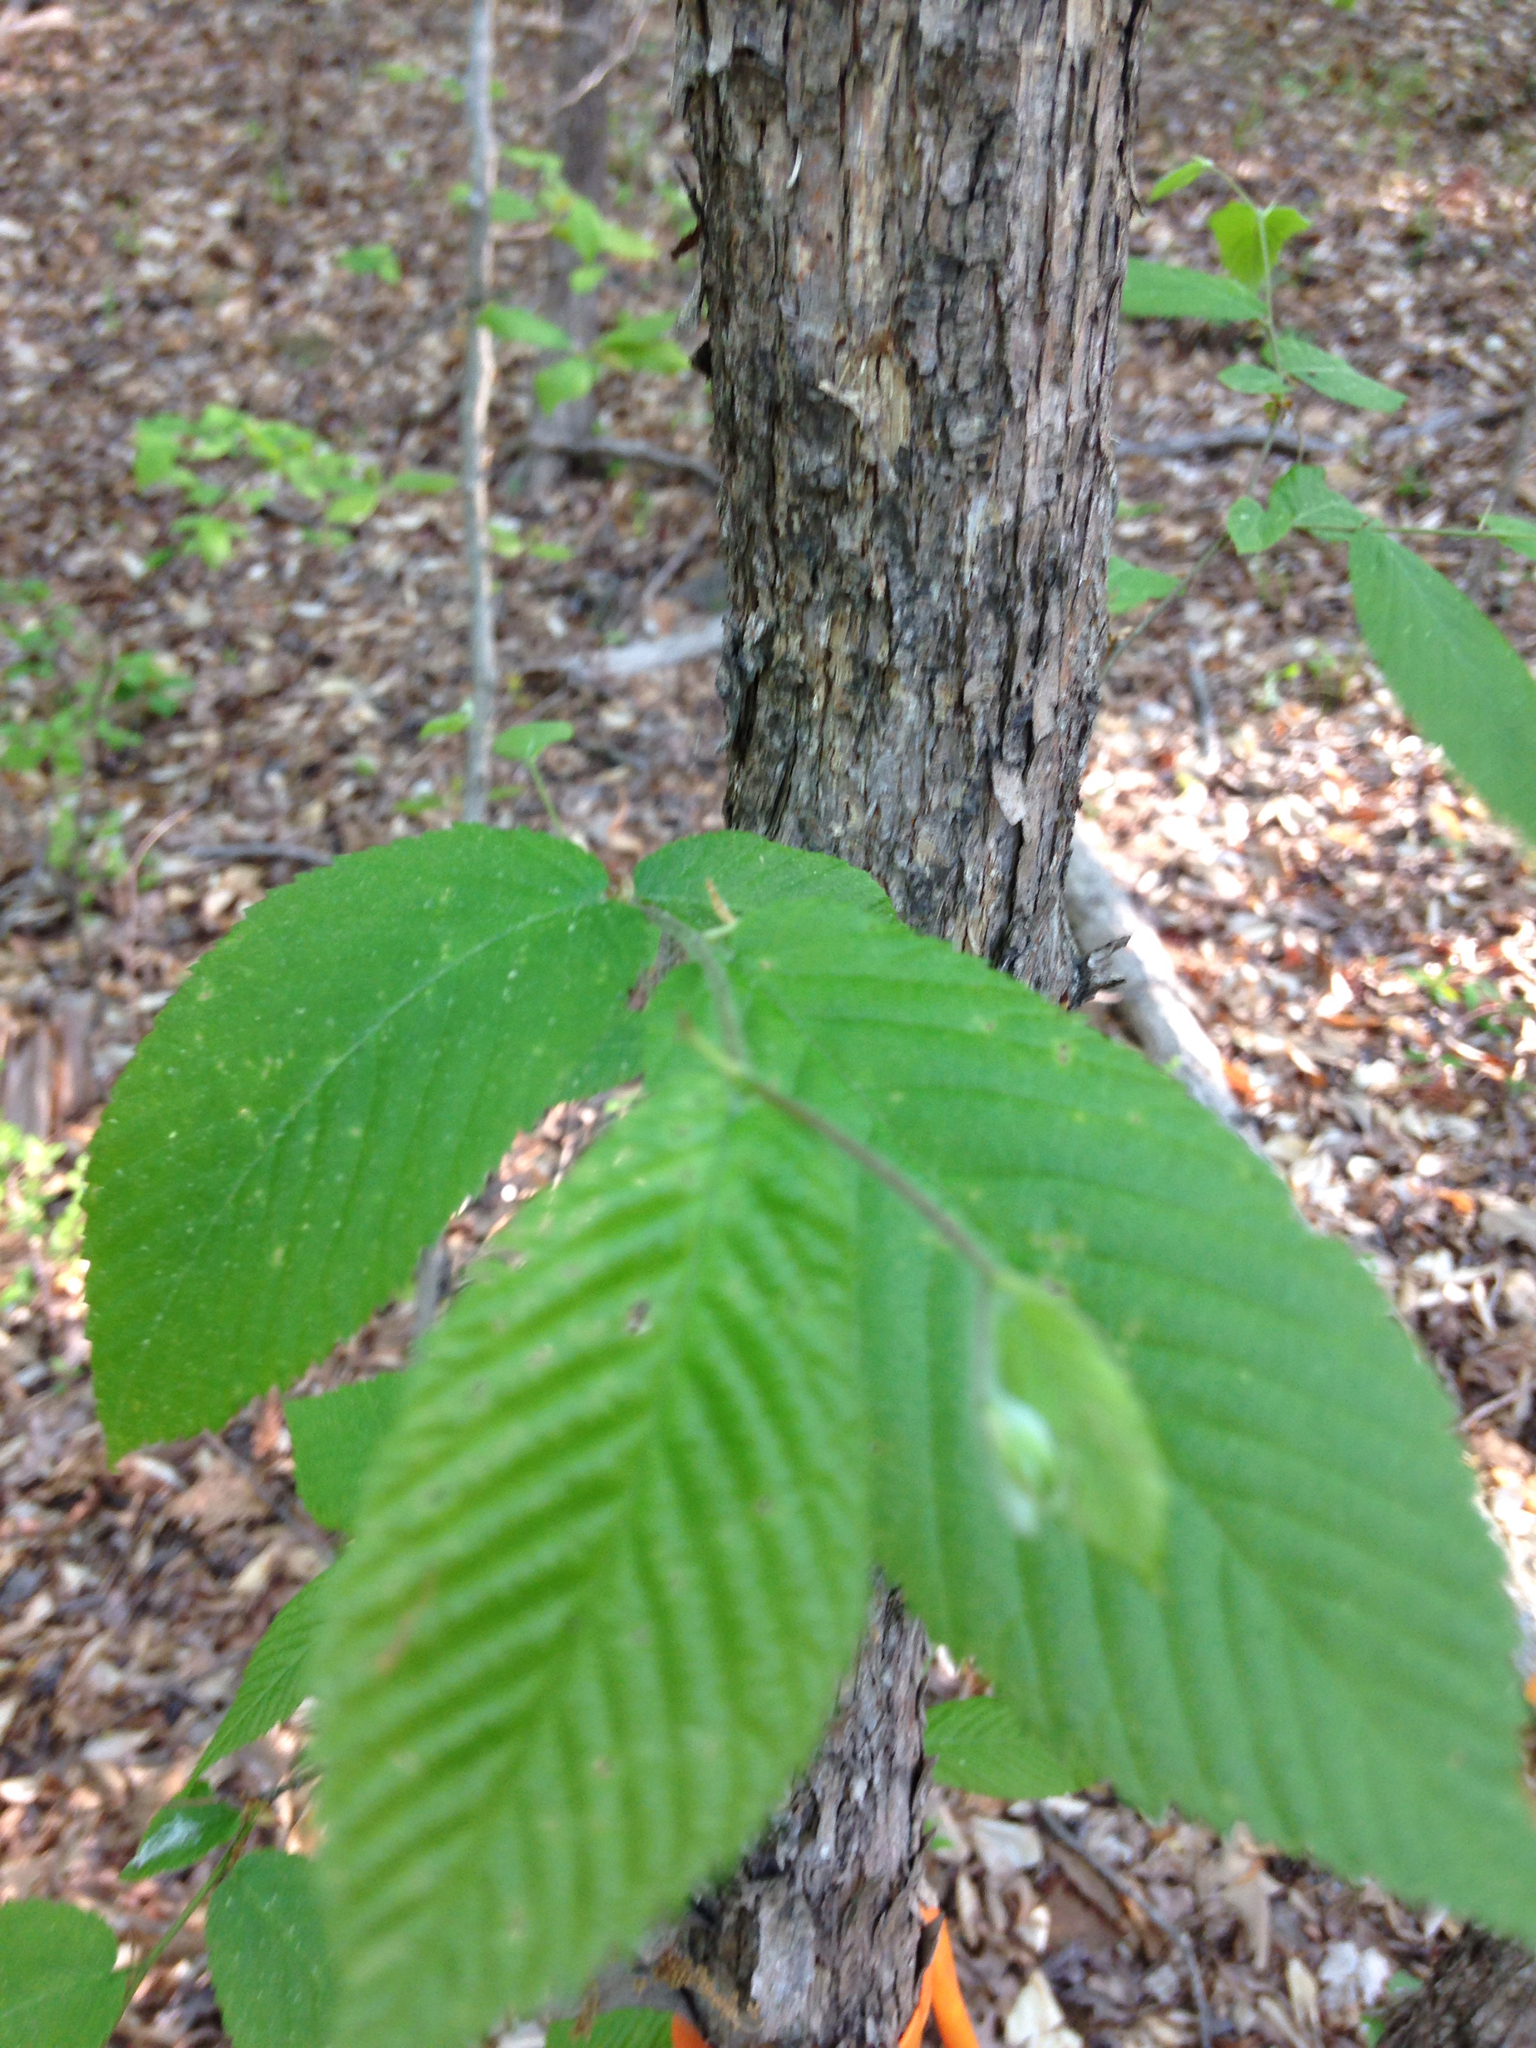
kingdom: Plantae
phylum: Tracheophyta
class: Magnoliopsida
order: Fagales
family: Betulaceae
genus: Ostrya
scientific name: Ostrya virginiana
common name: Ironwood
